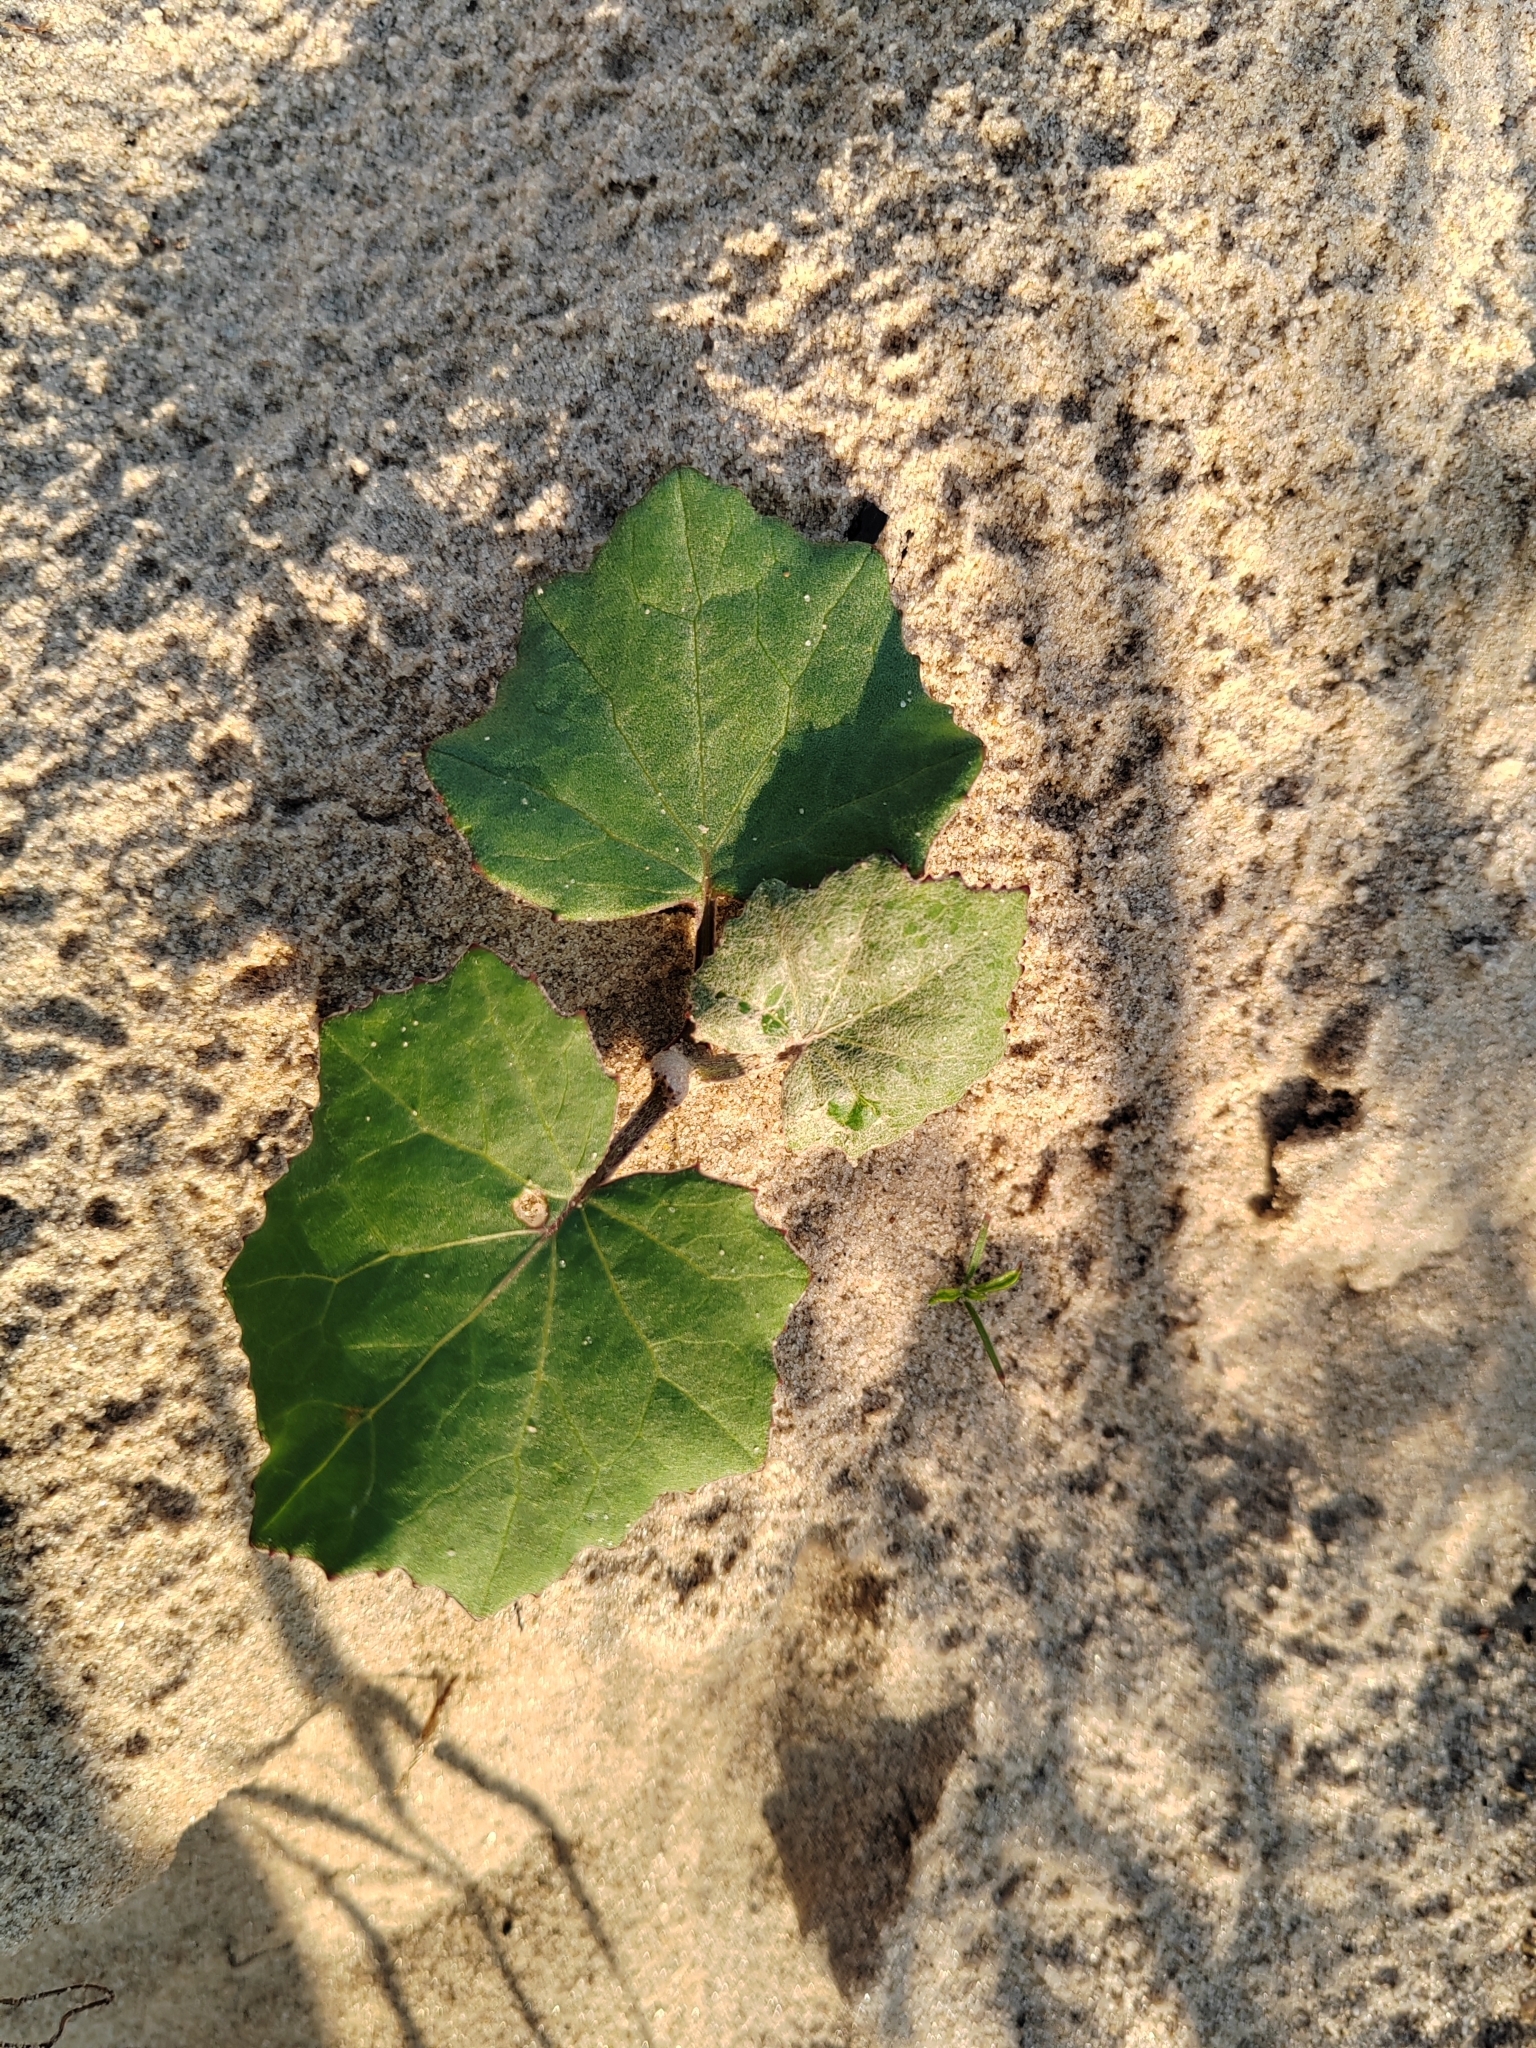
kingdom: Plantae
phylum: Tracheophyta
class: Magnoliopsida
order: Asterales
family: Asteraceae
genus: Tussilago
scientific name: Tussilago farfara
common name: Coltsfoot
